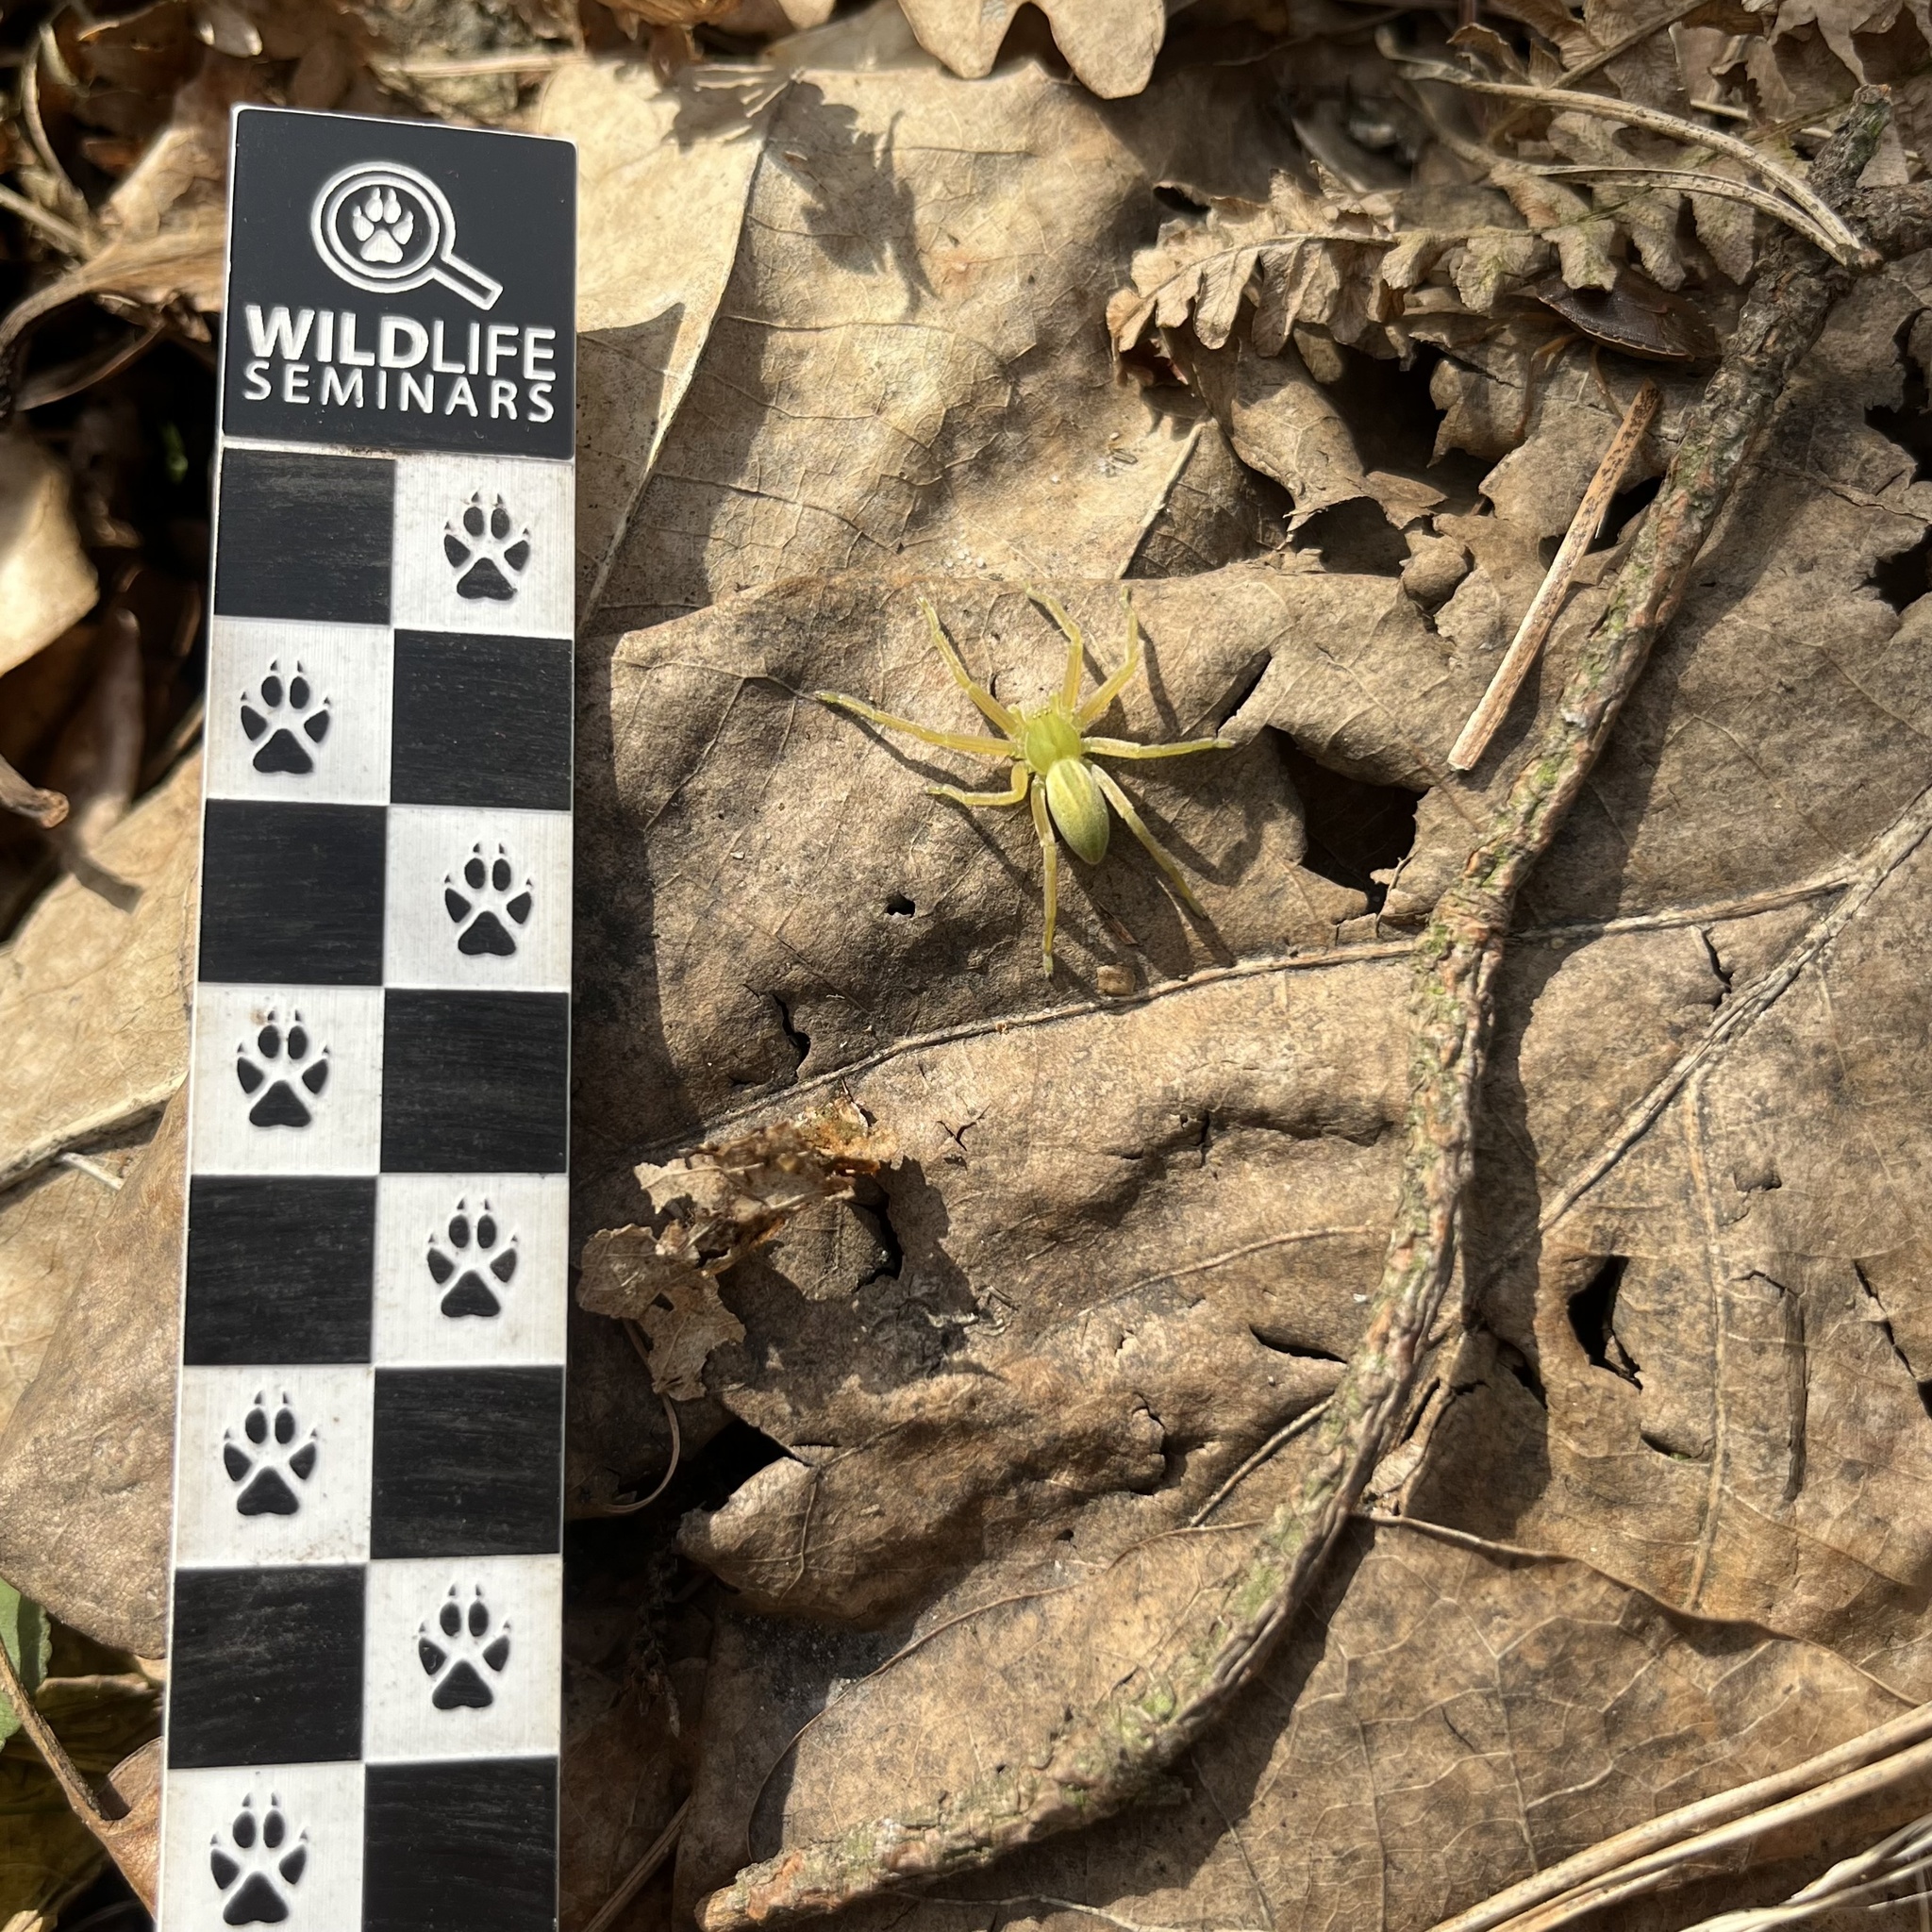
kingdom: Animalia
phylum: Arthropoda
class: Arachnida
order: Araneae
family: Sparassidae
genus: Micrommata
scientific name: Micrommata virescens
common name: Green spider
